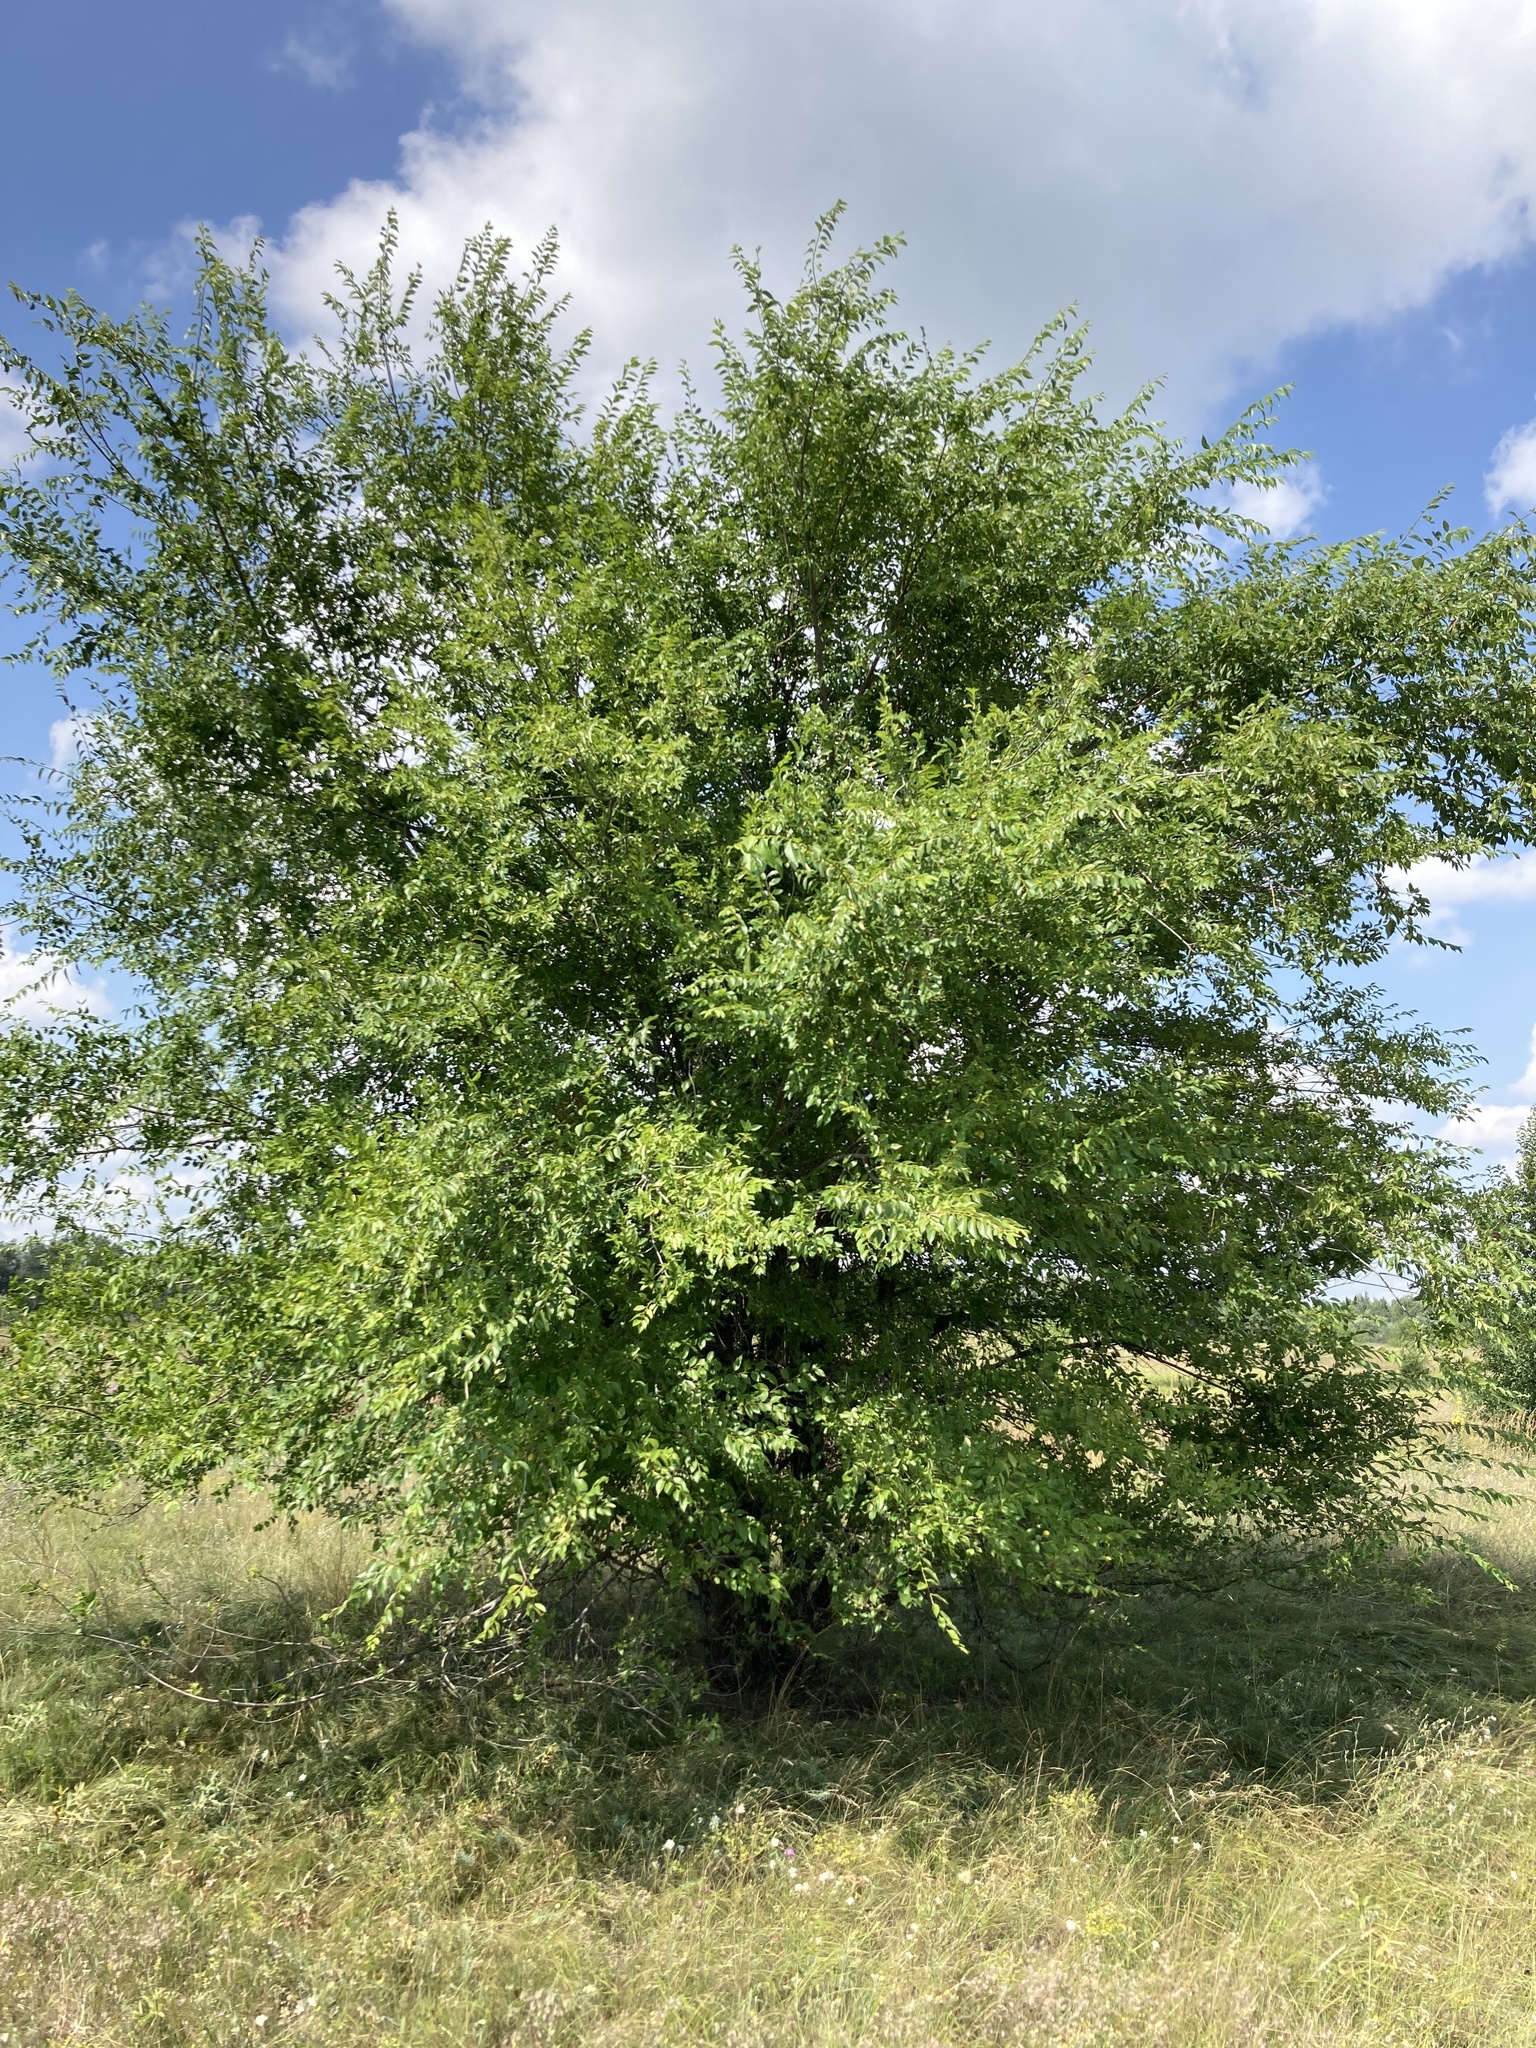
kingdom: Plantae
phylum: Tracheophyta
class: Magnoliopsida
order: Rosales
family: Ulmaceae
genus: Ulmus
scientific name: Ulmus pumila
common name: Siberian elm
